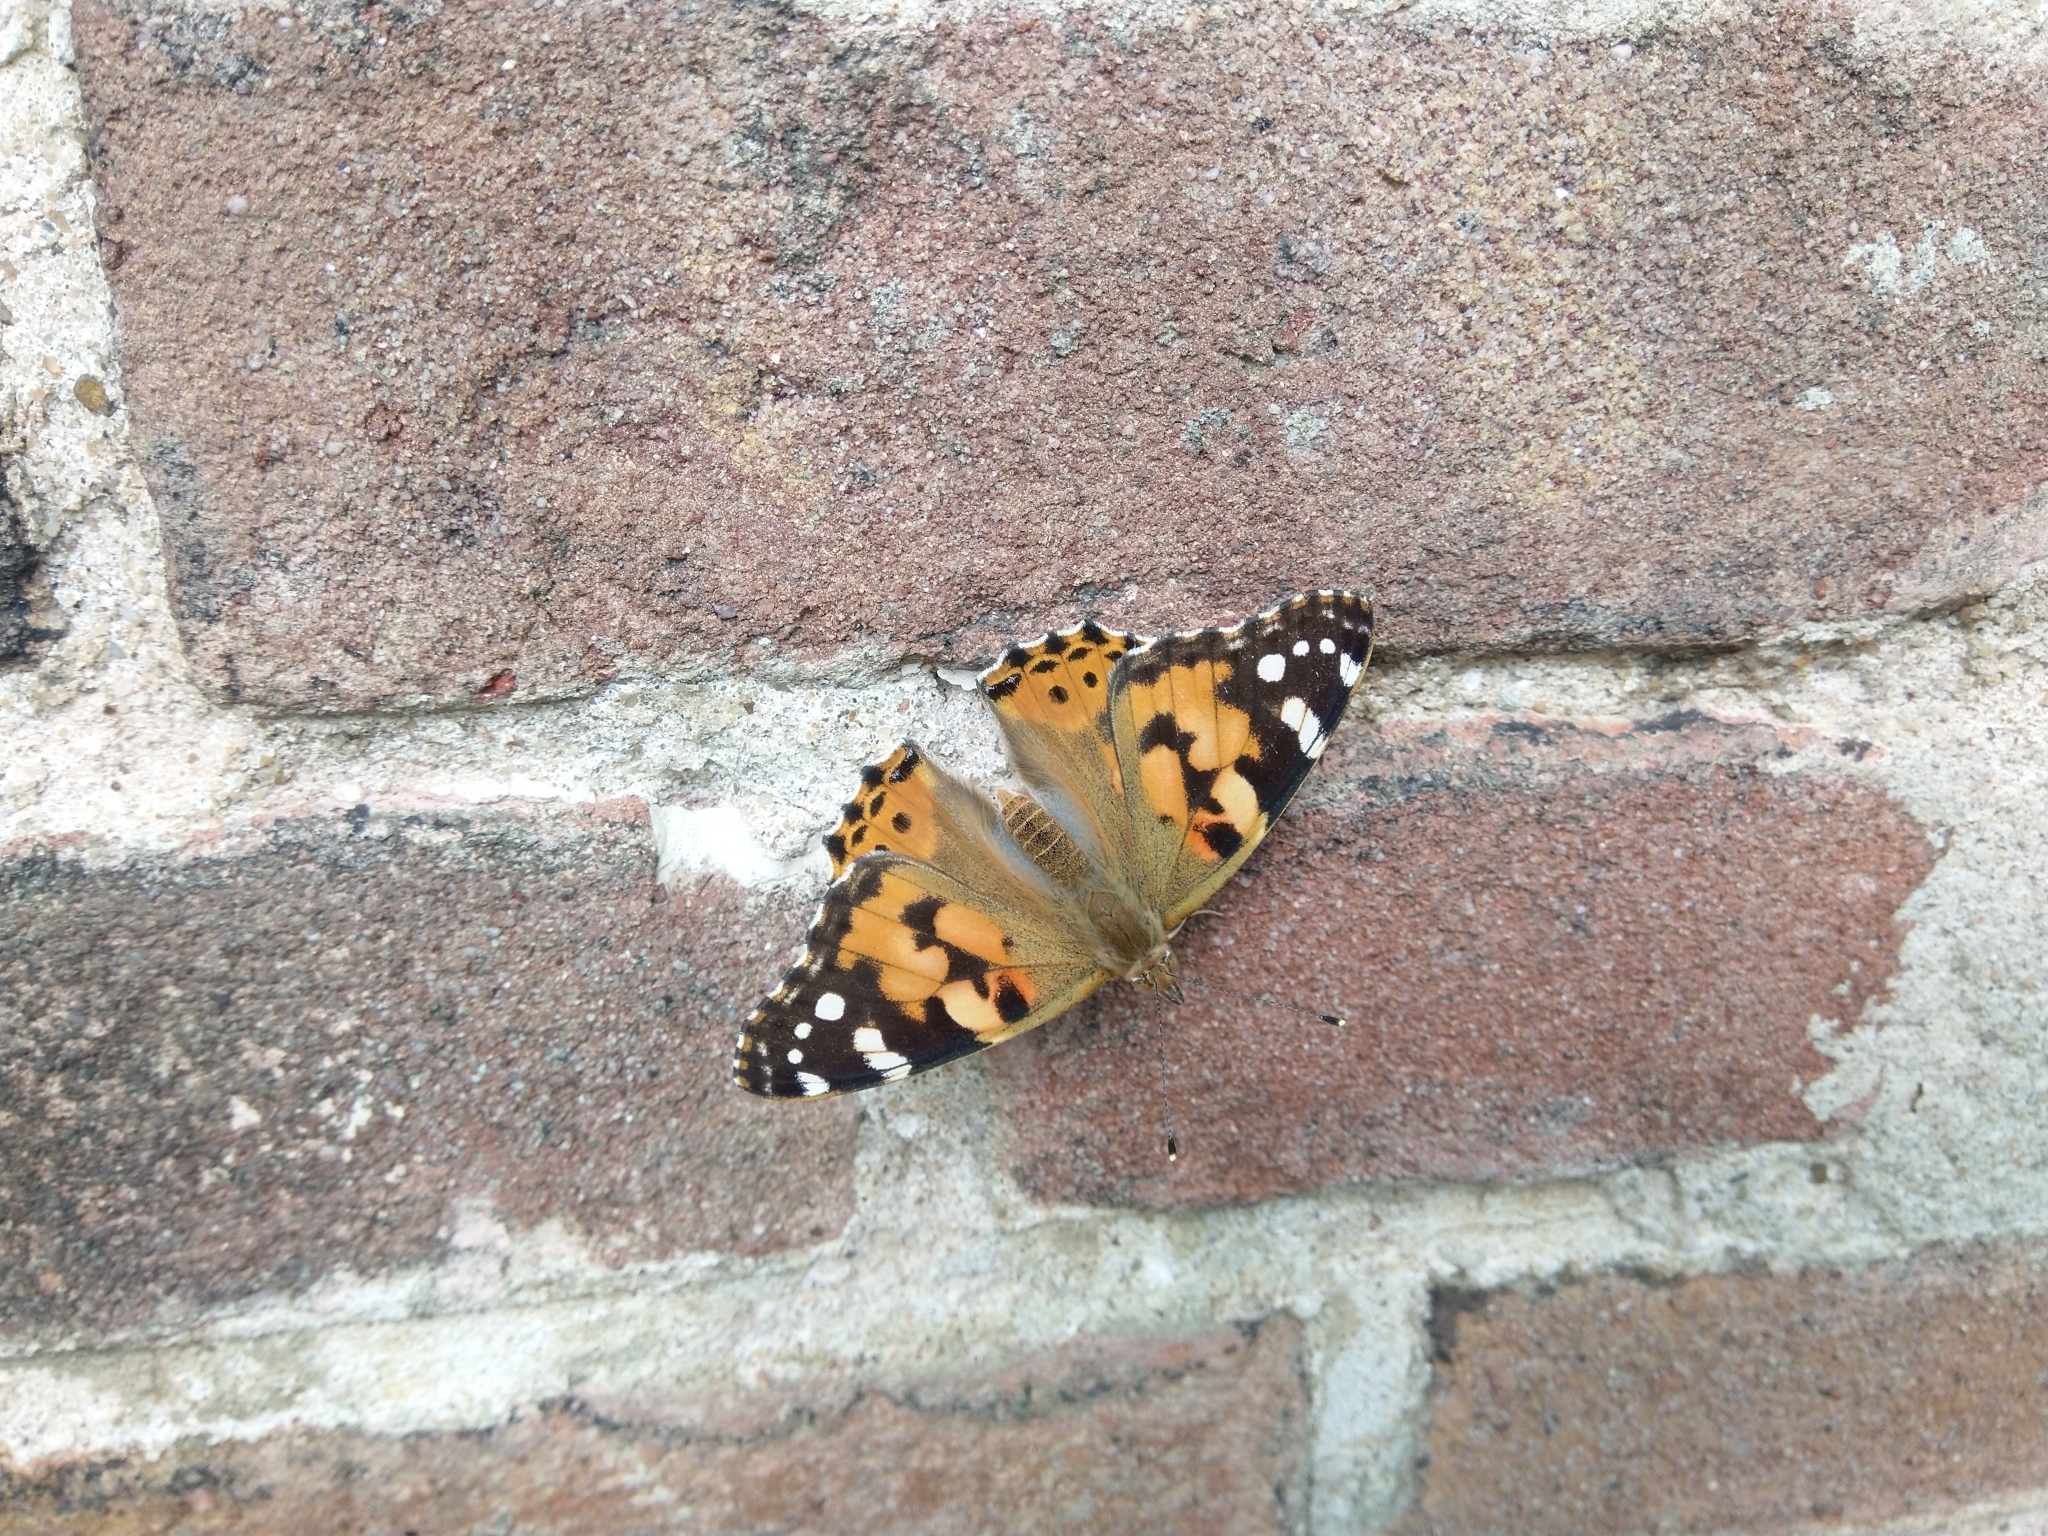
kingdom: Animalia
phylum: Arthropoda
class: Insecta
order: Lepidoptera
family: Nymphalidae
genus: Vanessa
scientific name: Vanessa cardui
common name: Painted lady
